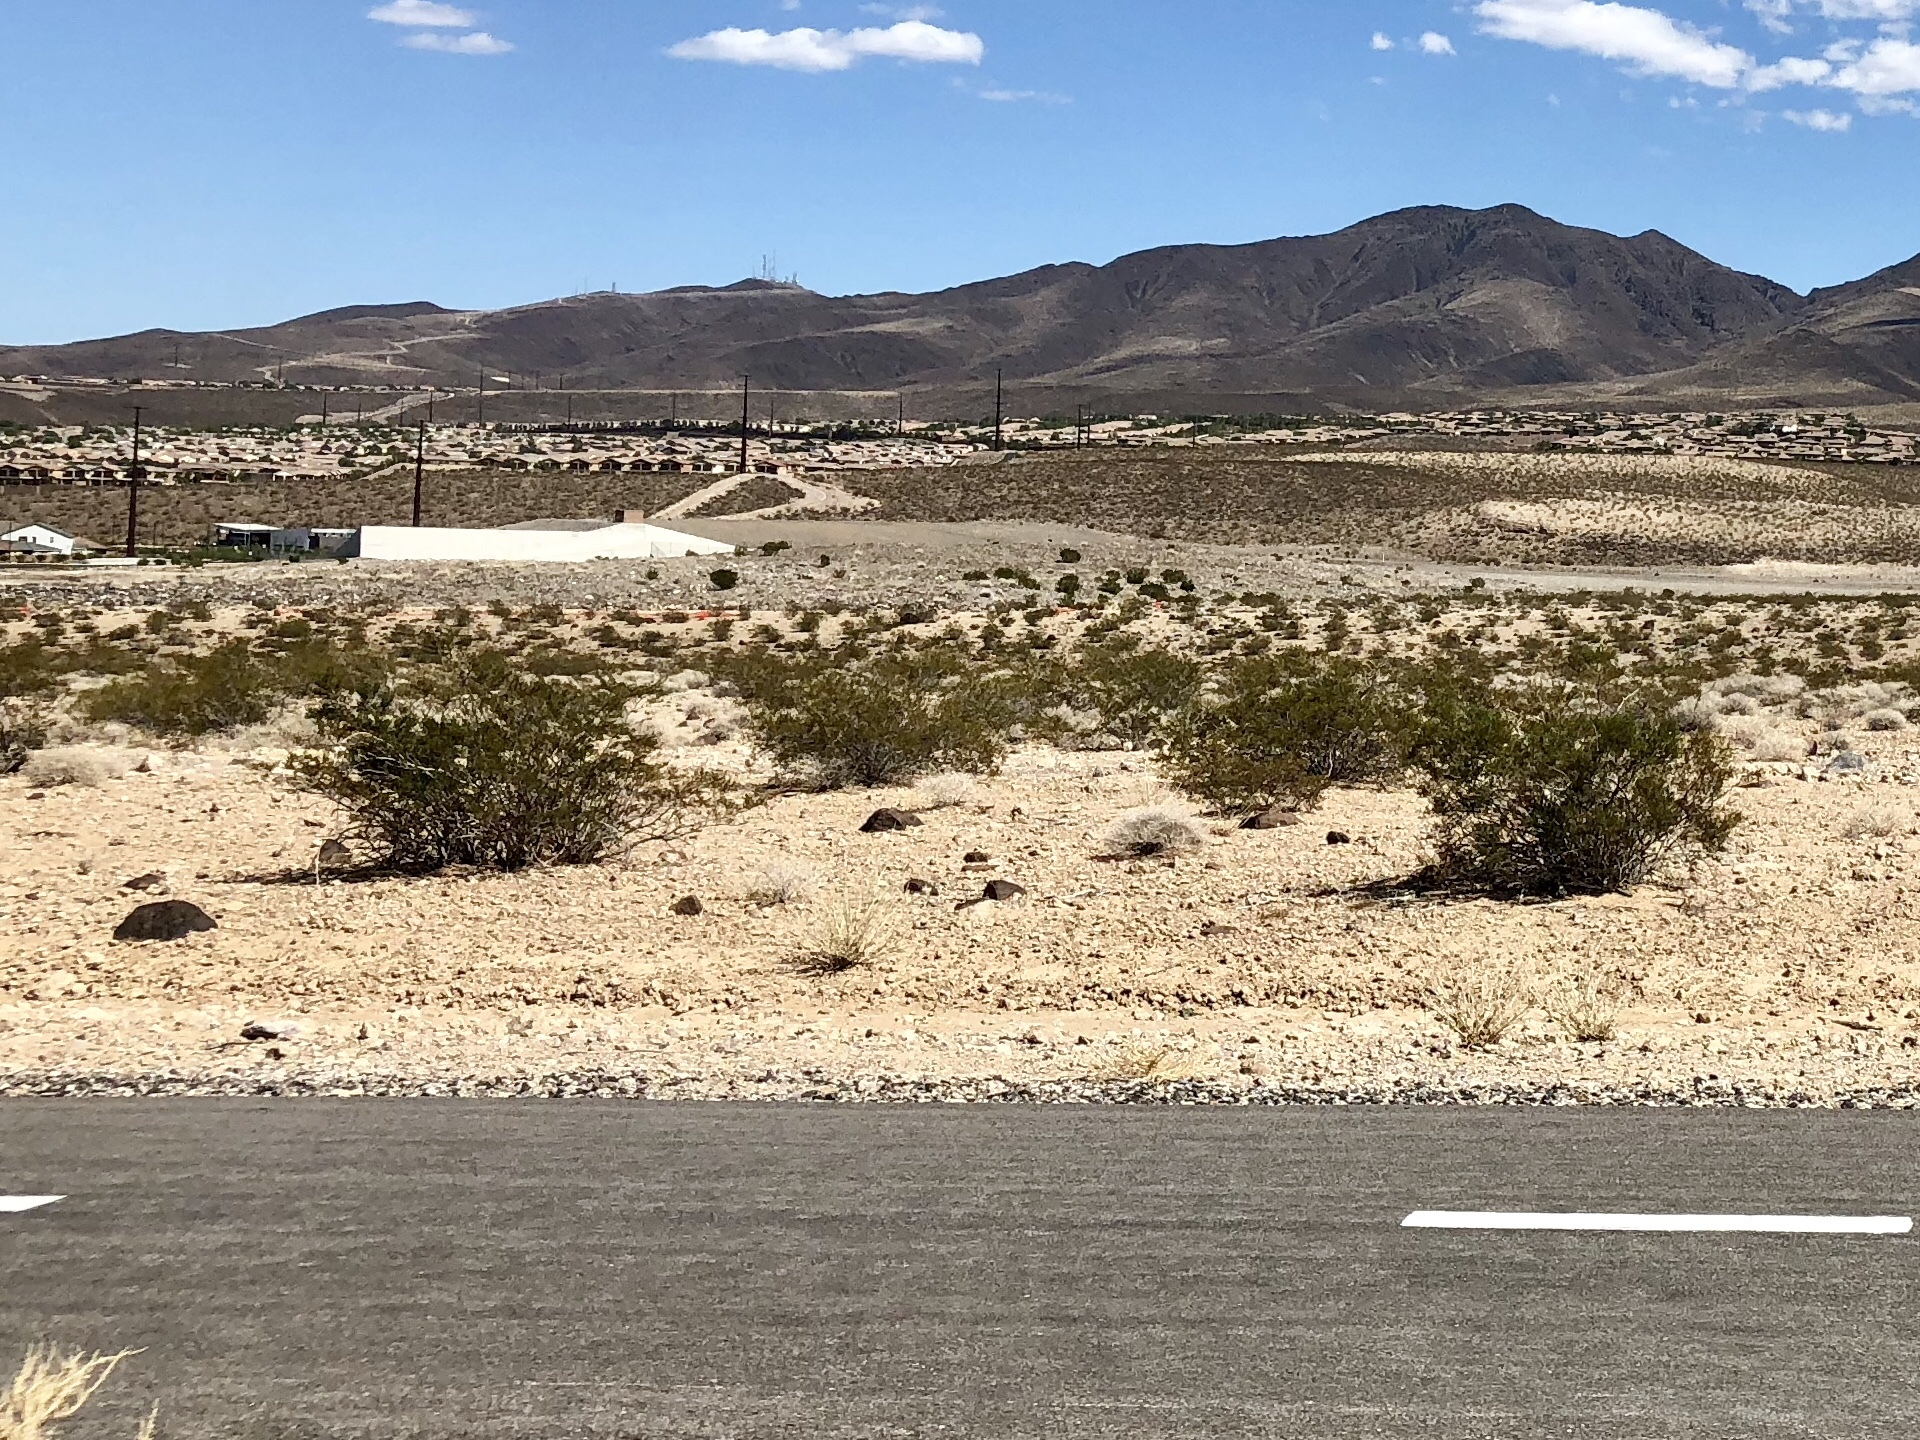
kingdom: Plantae
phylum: Tracheophyta
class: Magnoliopsida
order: Zygophyllales
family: Zygophyllaceae
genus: Larrea
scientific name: Larrea tridentata
